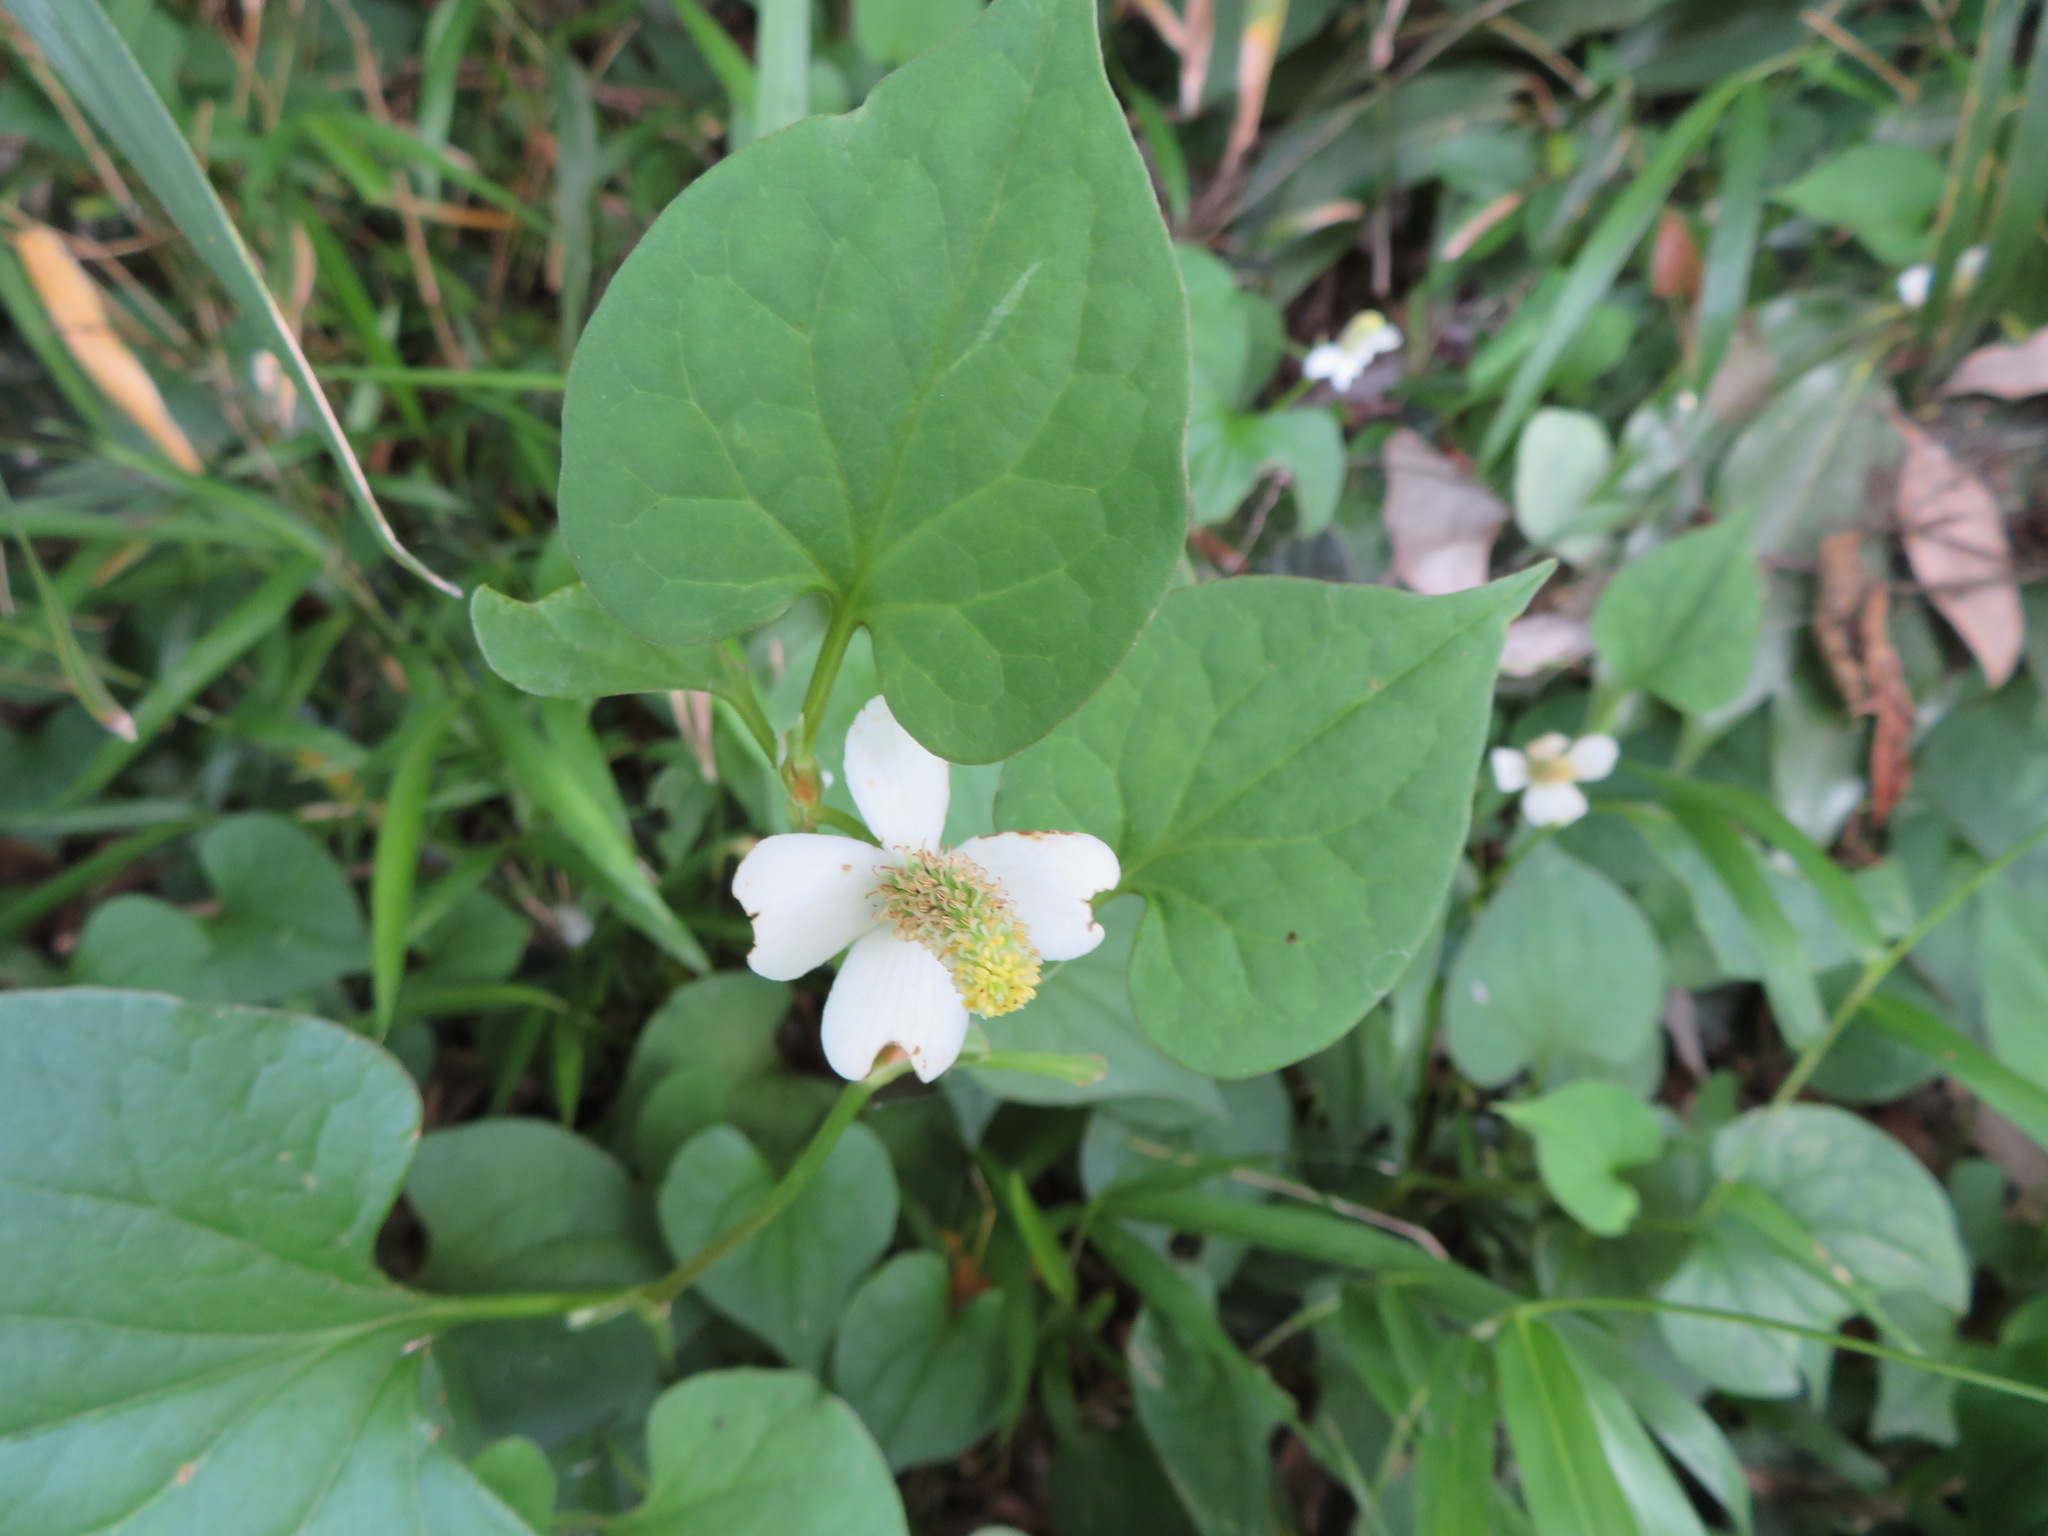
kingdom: Plantae
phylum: Tracheophyta
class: Magnoliopsida
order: Piperales
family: Saururaceae
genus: Houttuynia
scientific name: Houttuynia cordata
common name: Chameleon
